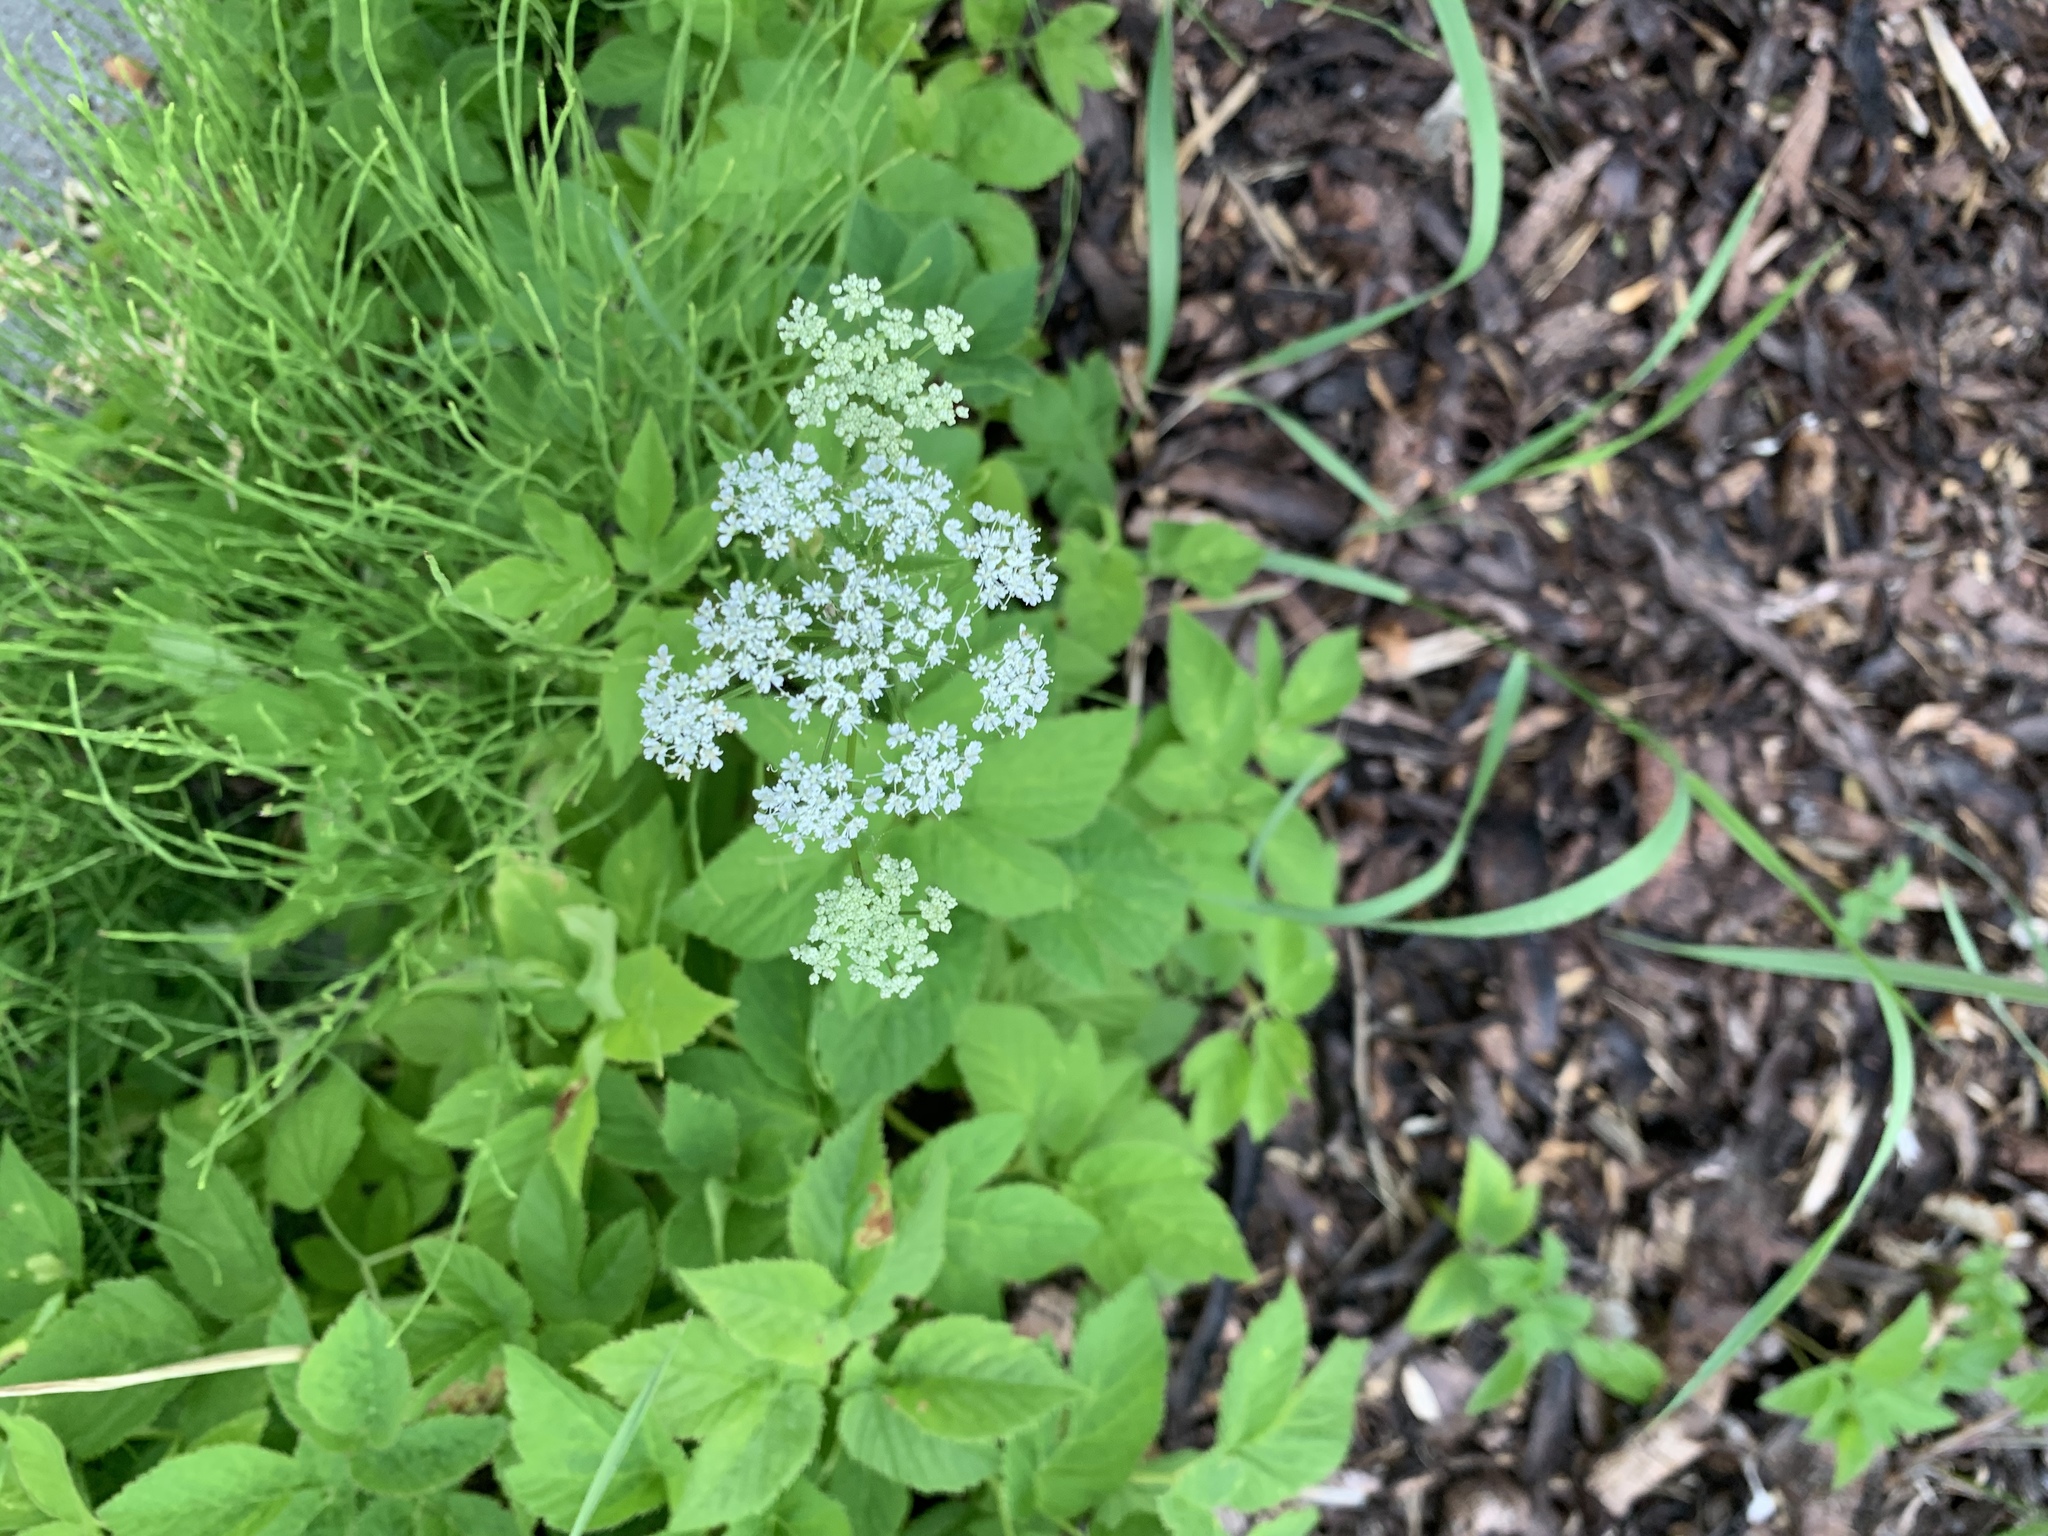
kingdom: Plantae
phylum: Tracheophyta
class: Magnoliopsida
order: Apiales
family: Apiaceae
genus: Aegopodium
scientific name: Aegopodium podagraria
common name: Ground-elder
